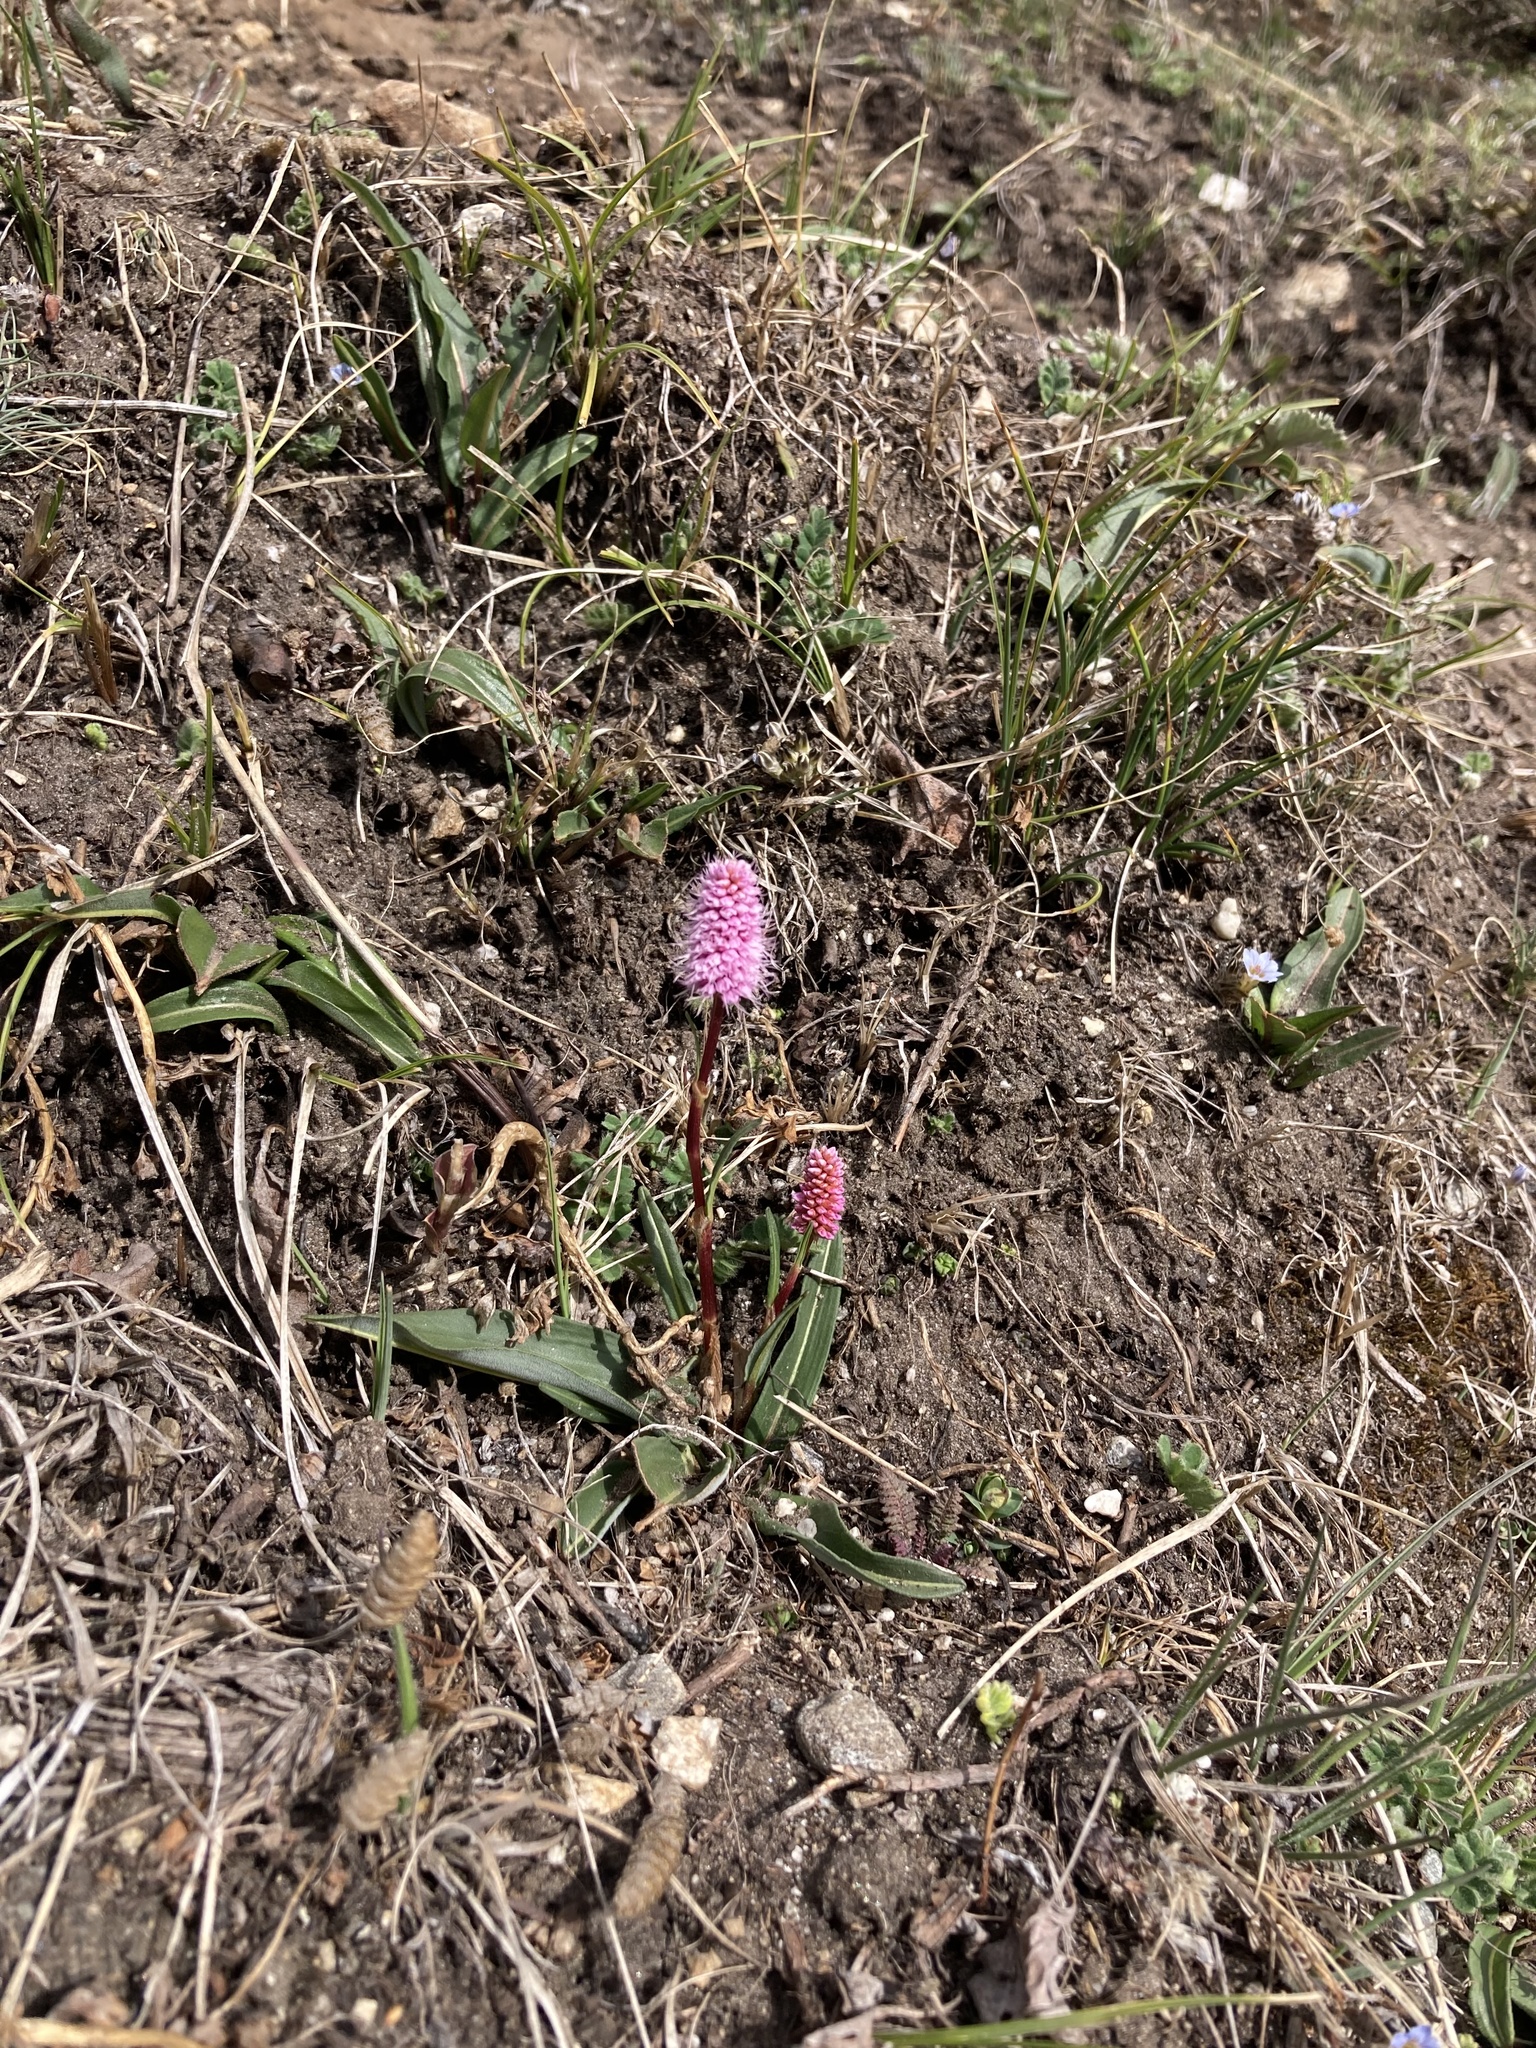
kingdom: Plantae
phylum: Tracheophyta
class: Magnoliopsida
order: Caryophyllales
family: Polygonaceae
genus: Bistorta
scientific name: Bistorta macrophylla
